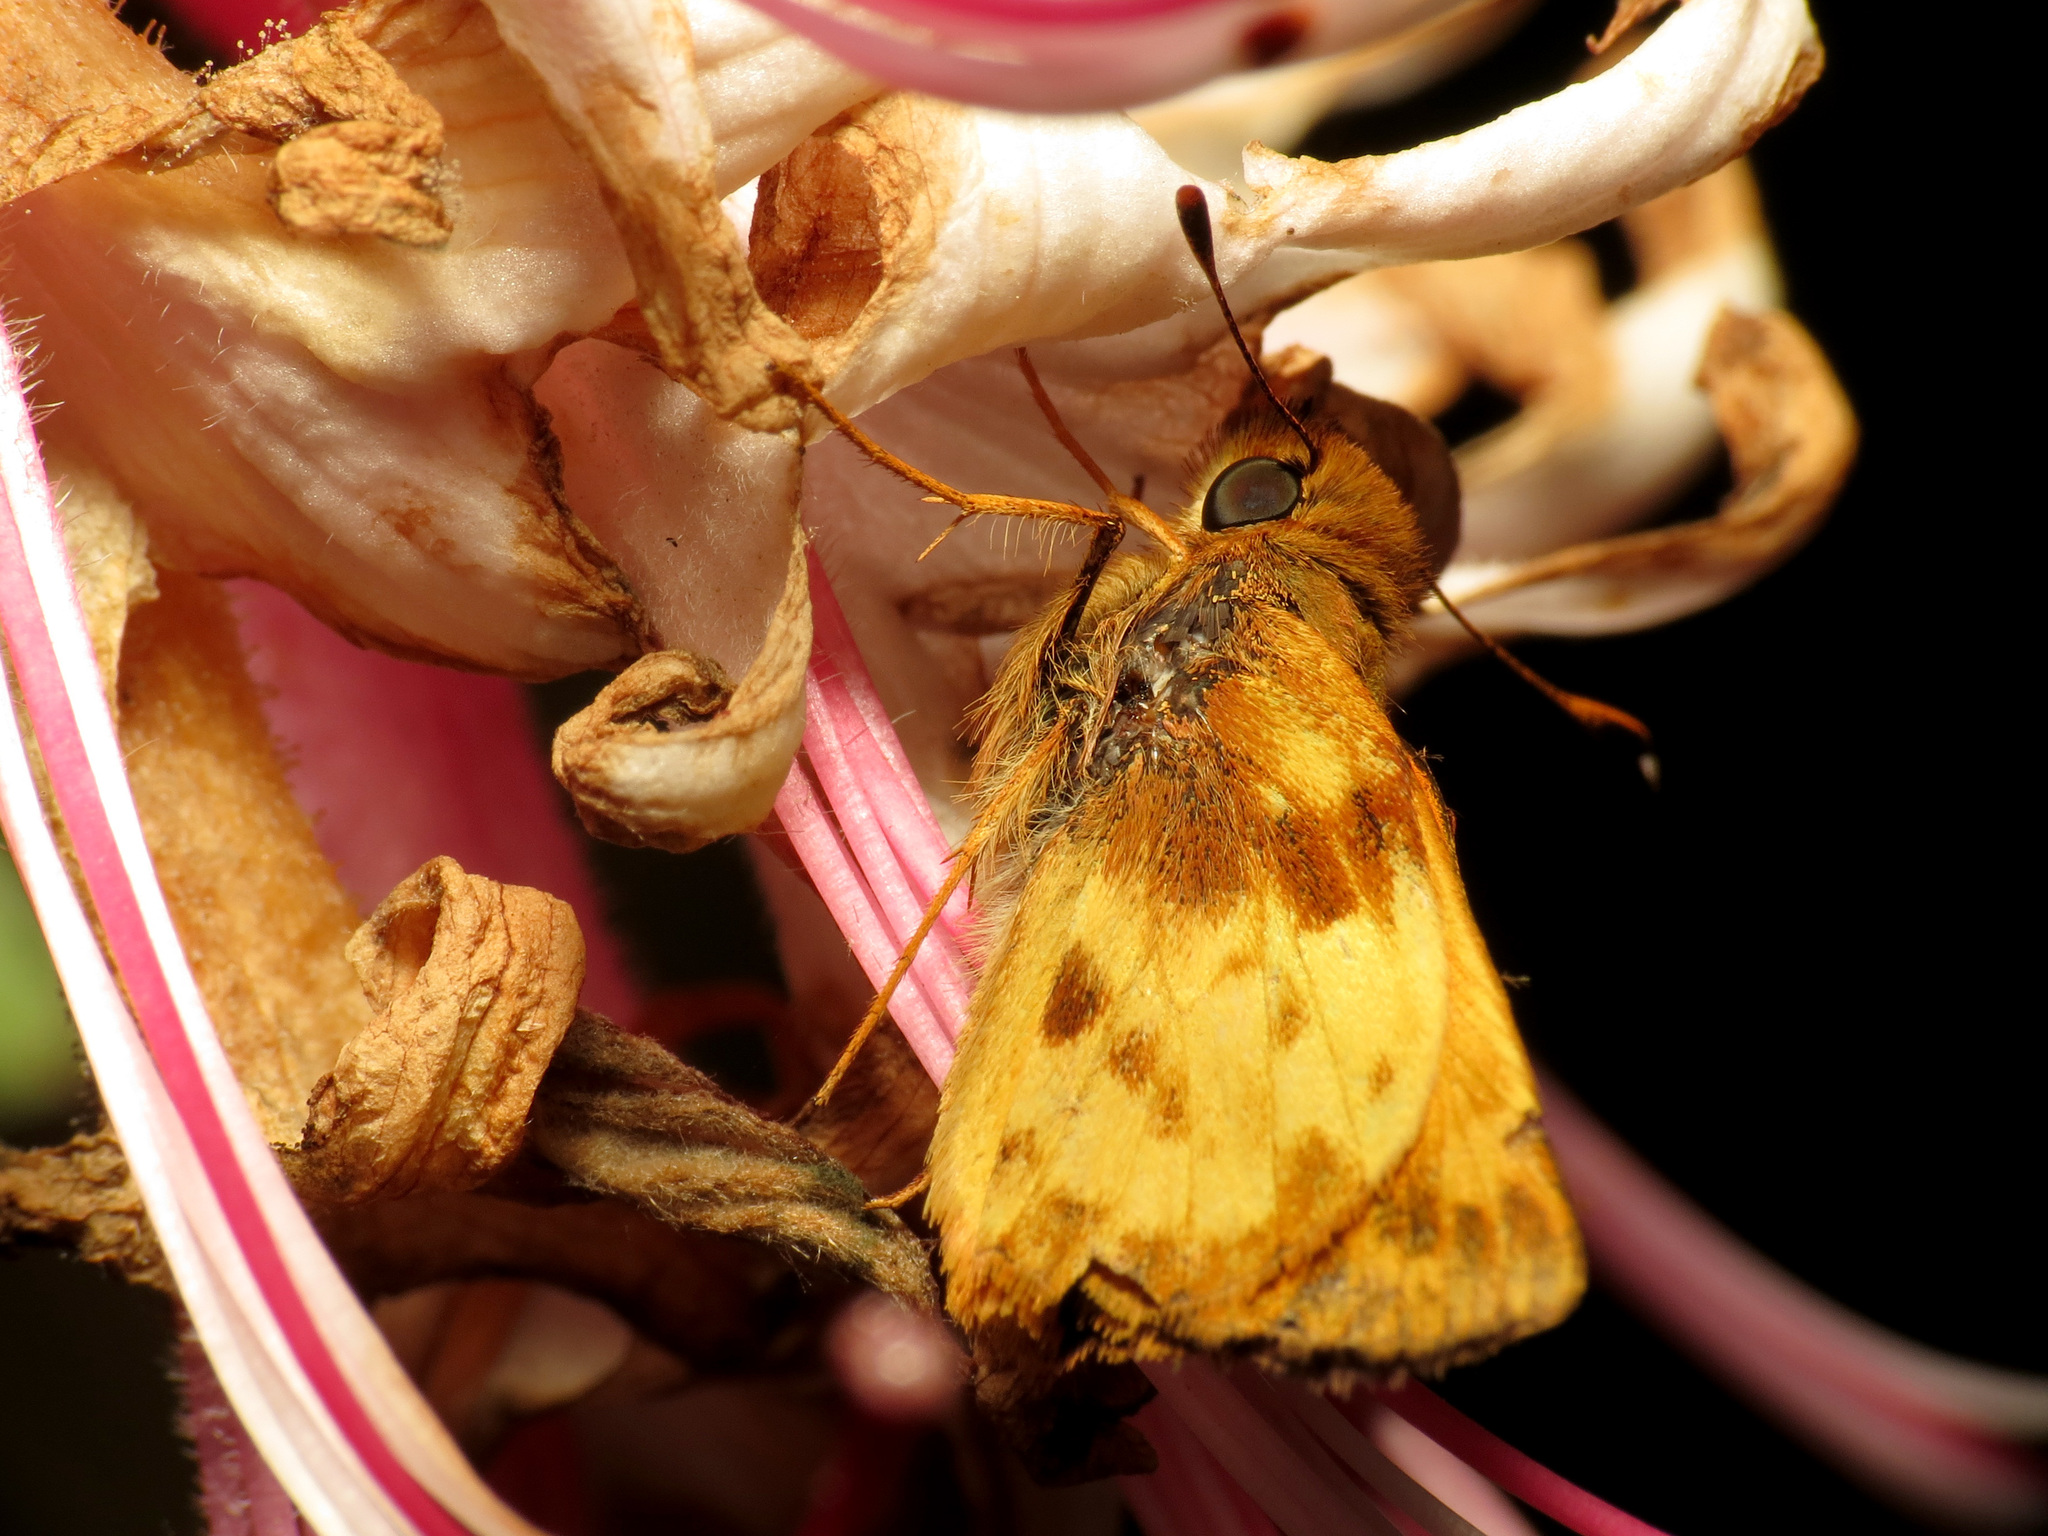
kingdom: Animalia
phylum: Arthropoda
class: Insecta
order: Lepidoptera
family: Hesperiidae
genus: Lon
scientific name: Lon zabulon
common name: Zabulon skipper
